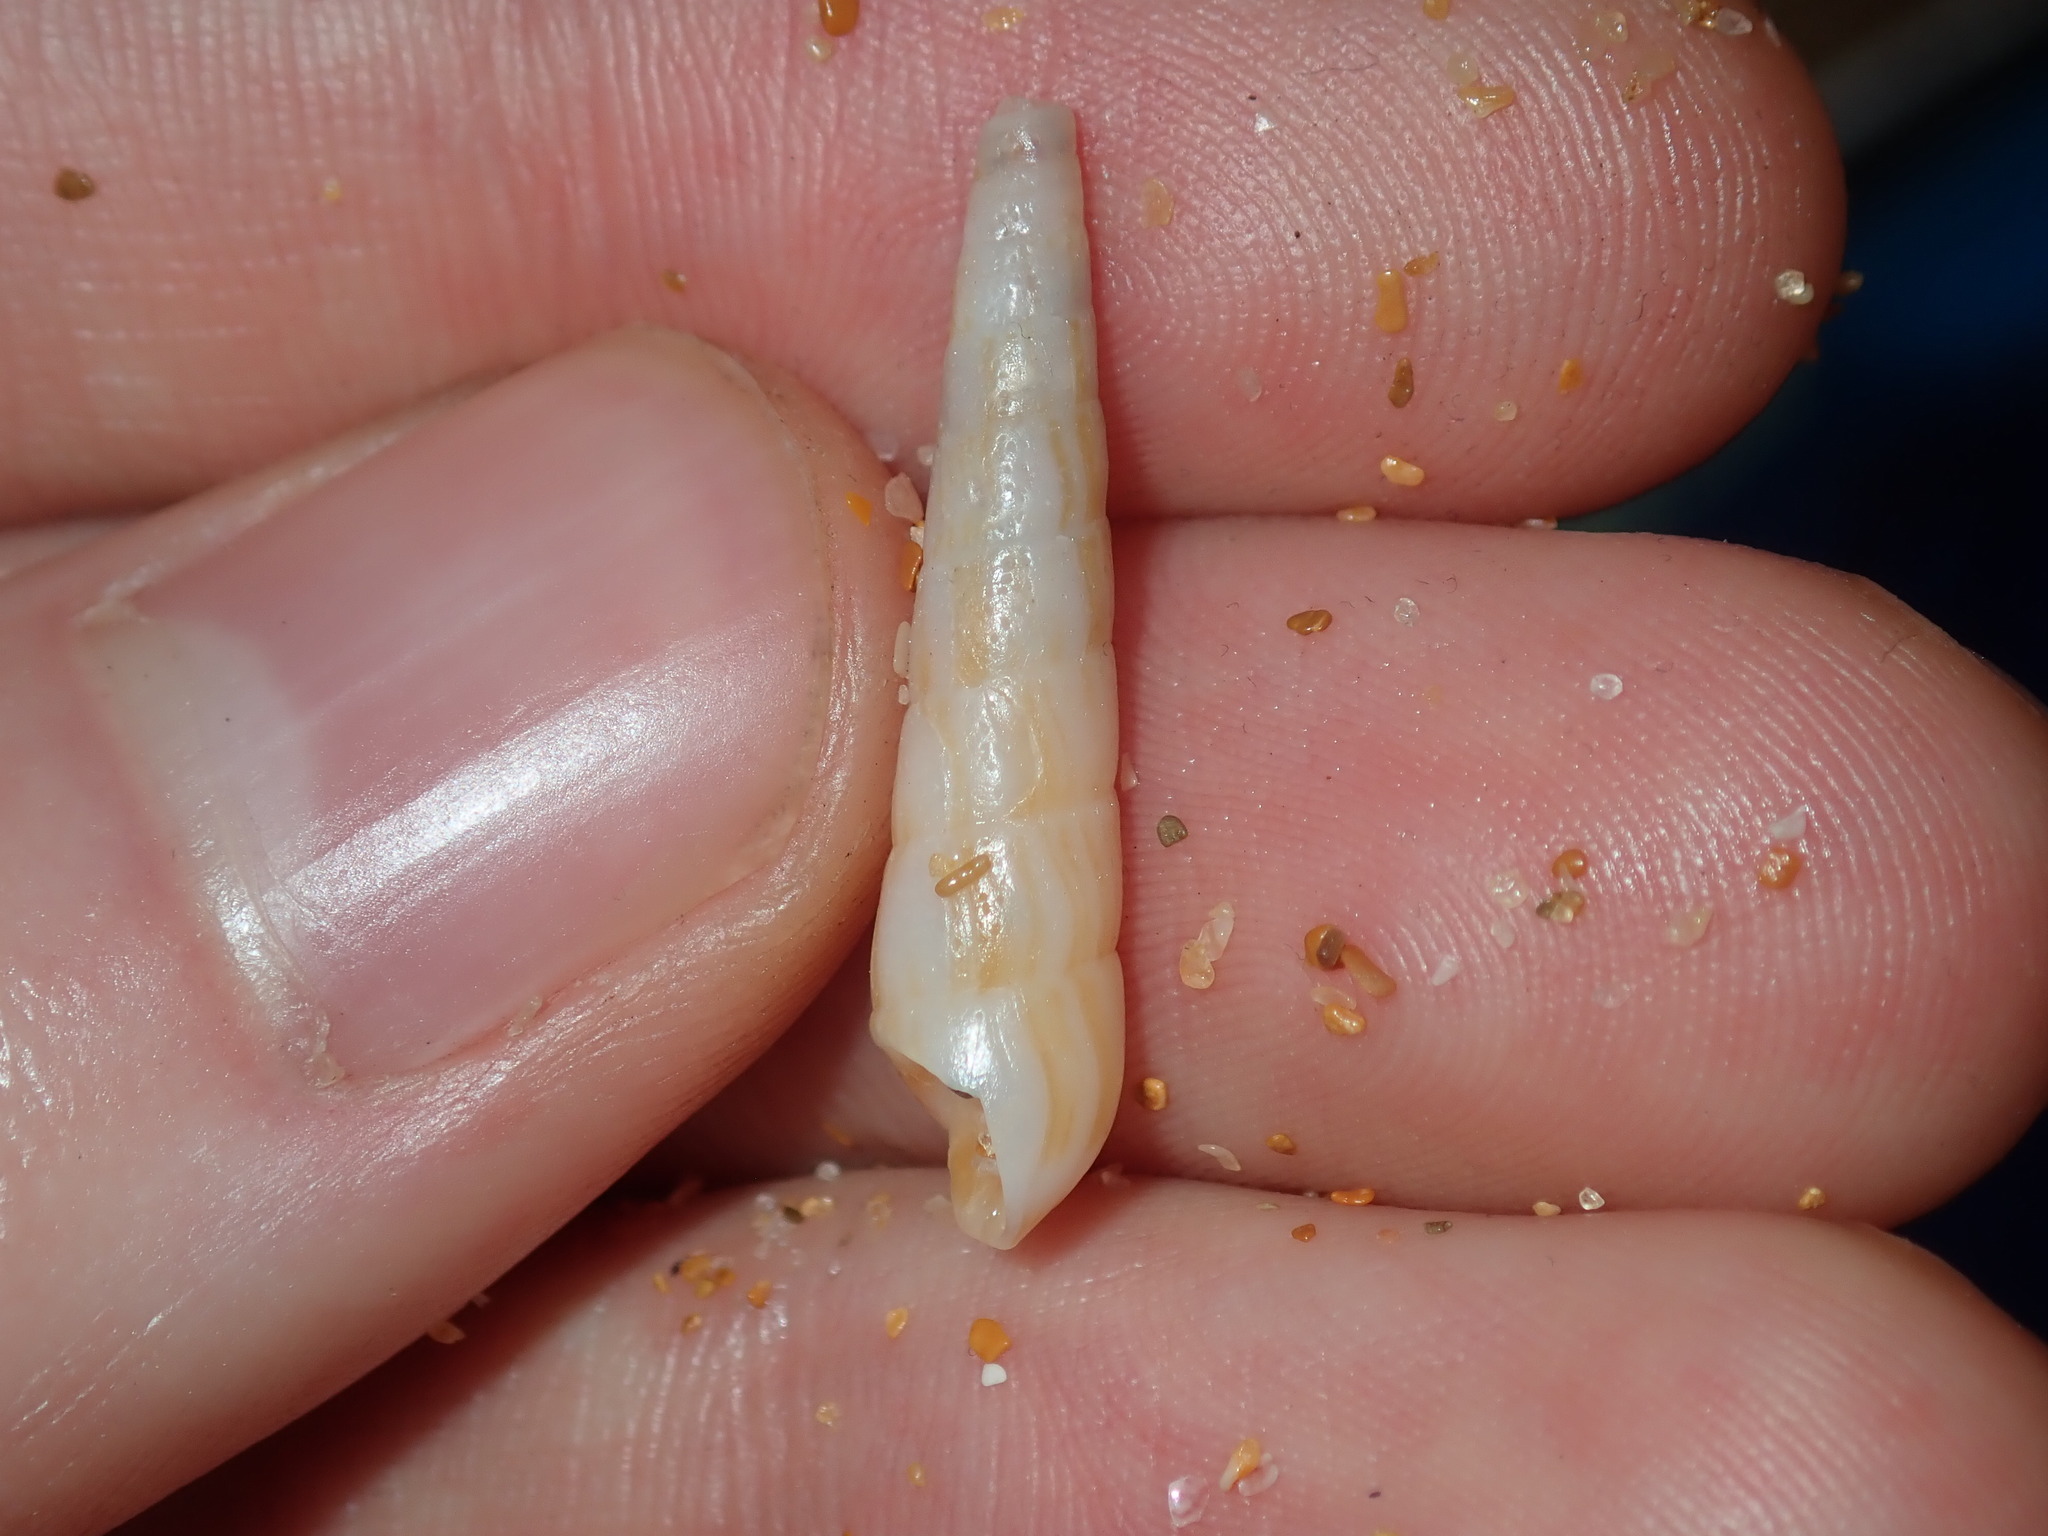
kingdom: Animalia
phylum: Mollusca
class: Gastropoda
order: Neogastropoda
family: Terebridae
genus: Profunditerebra
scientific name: Profunditerebra brazieri
